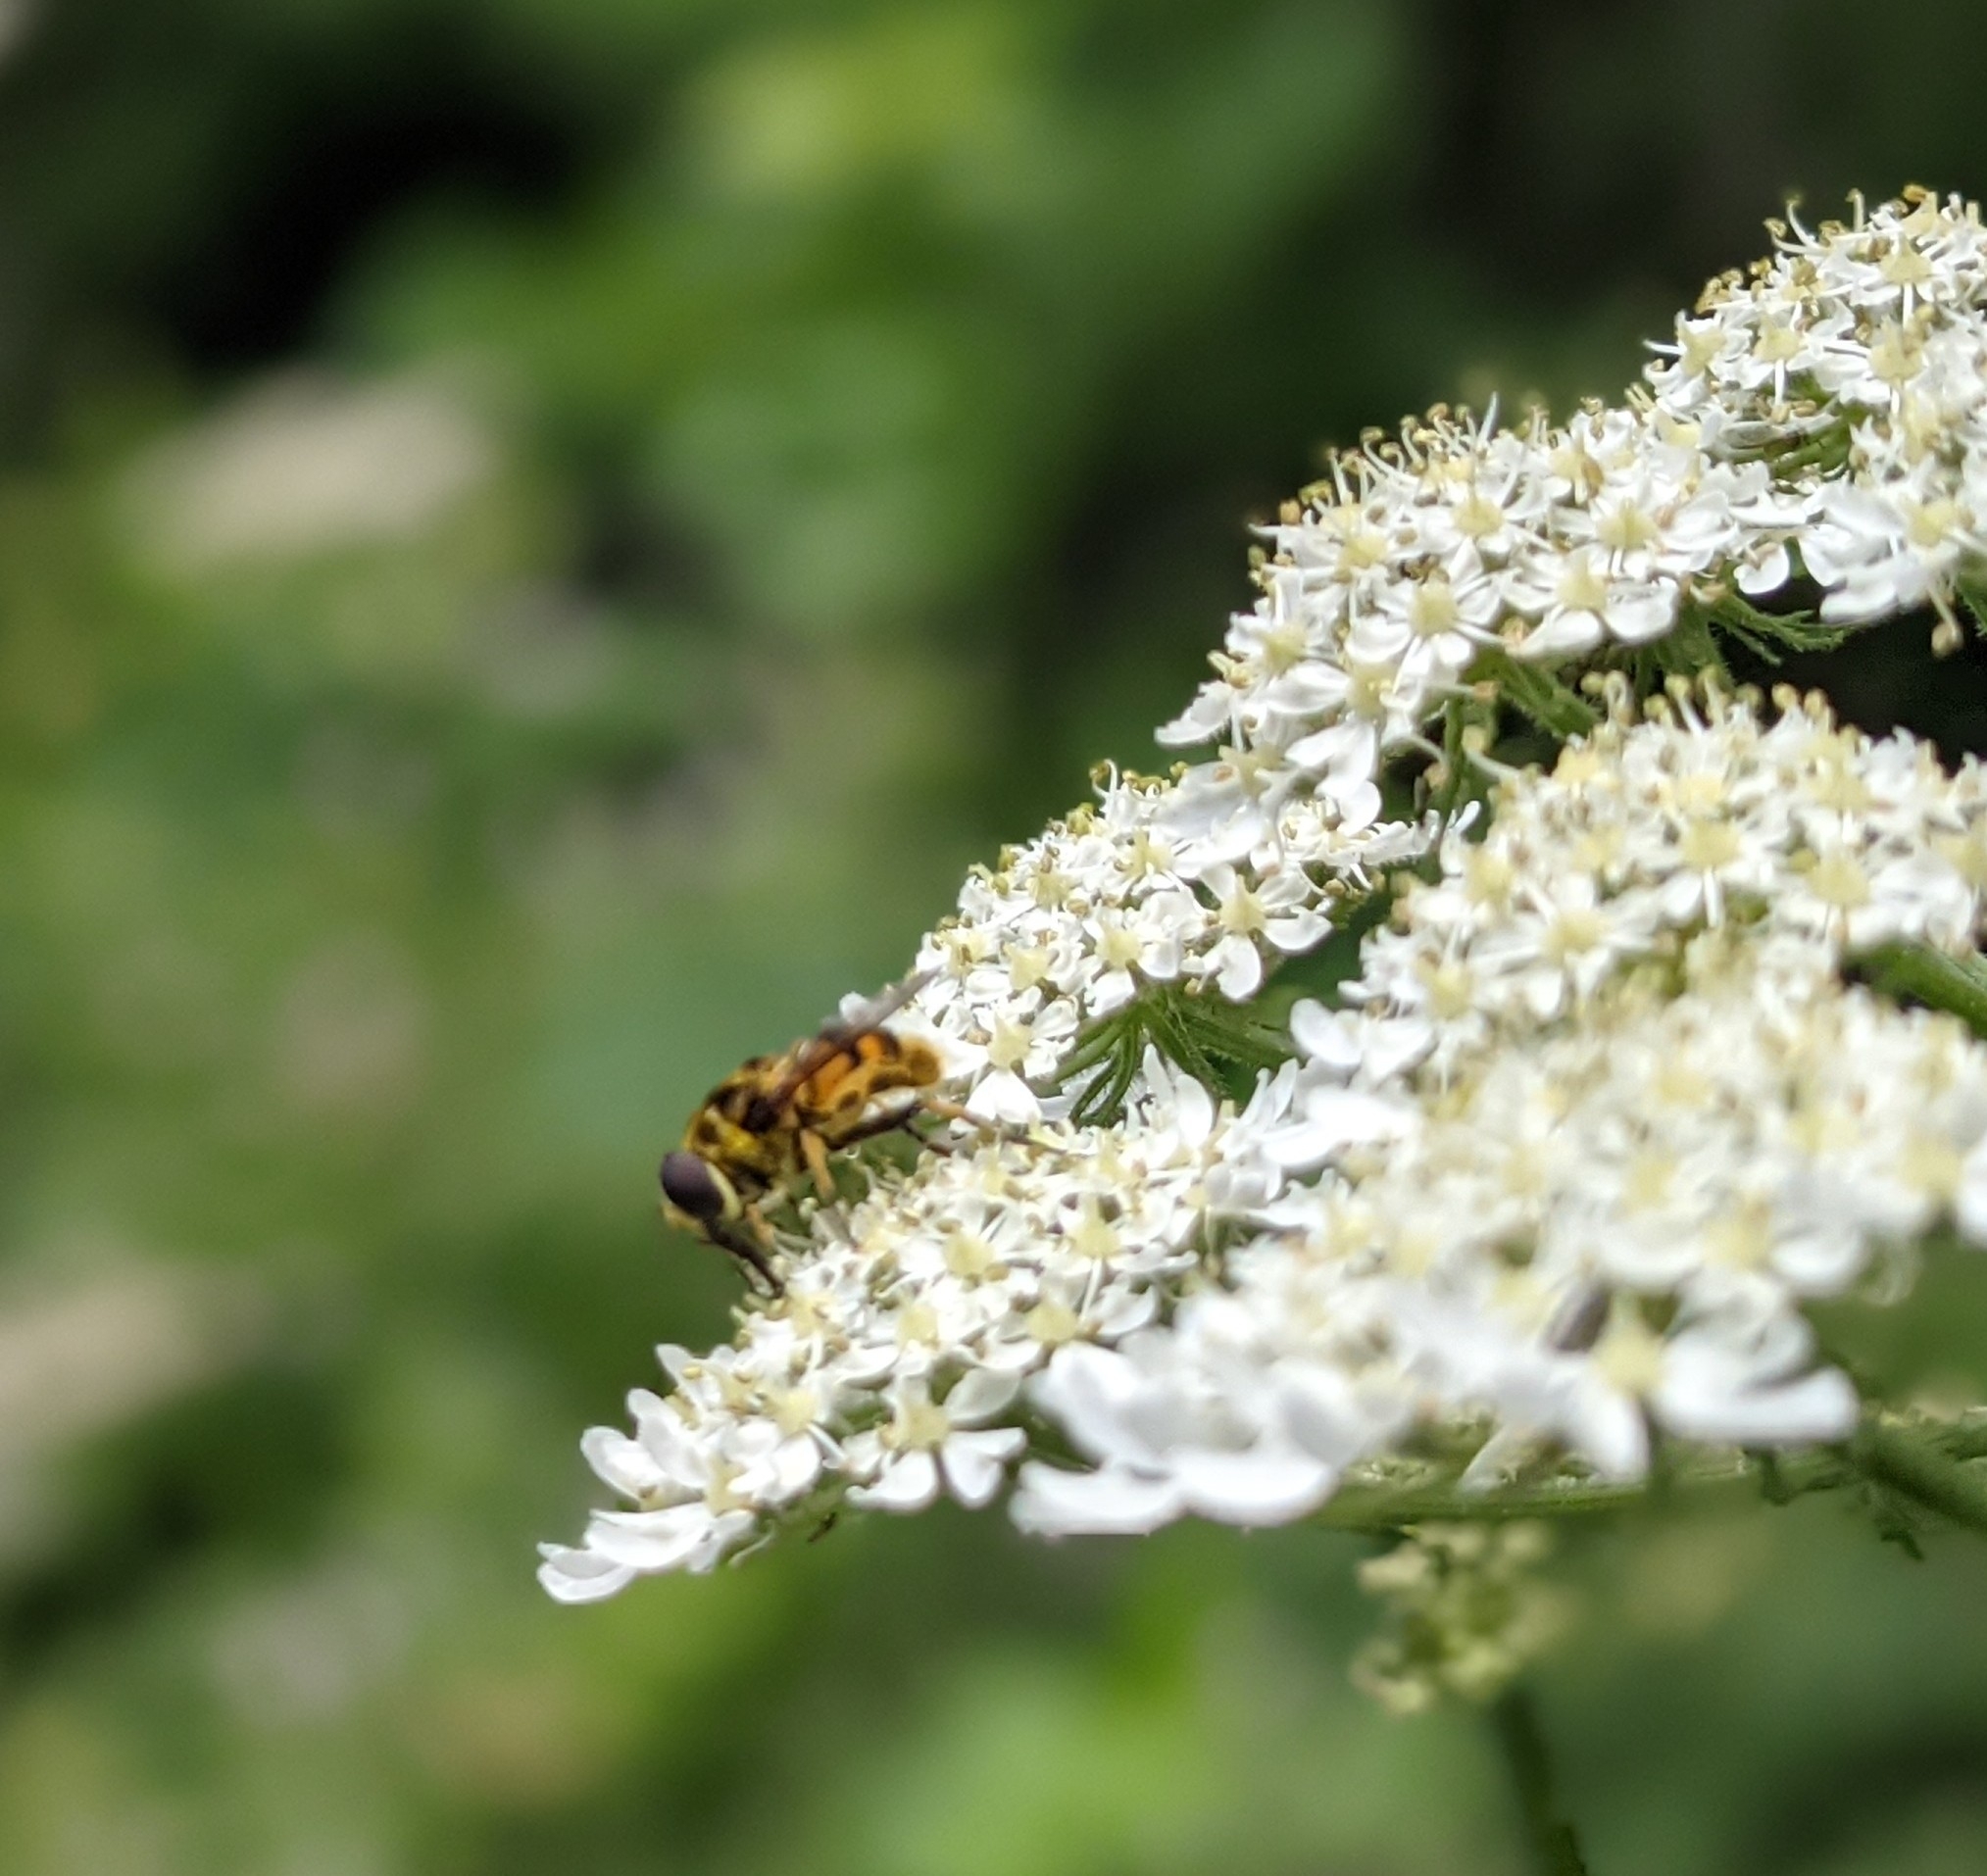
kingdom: Animalia
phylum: Arthropoda
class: Insecta
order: Diptera
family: Syrphidae
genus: Myathropa
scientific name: Myathropa florea
